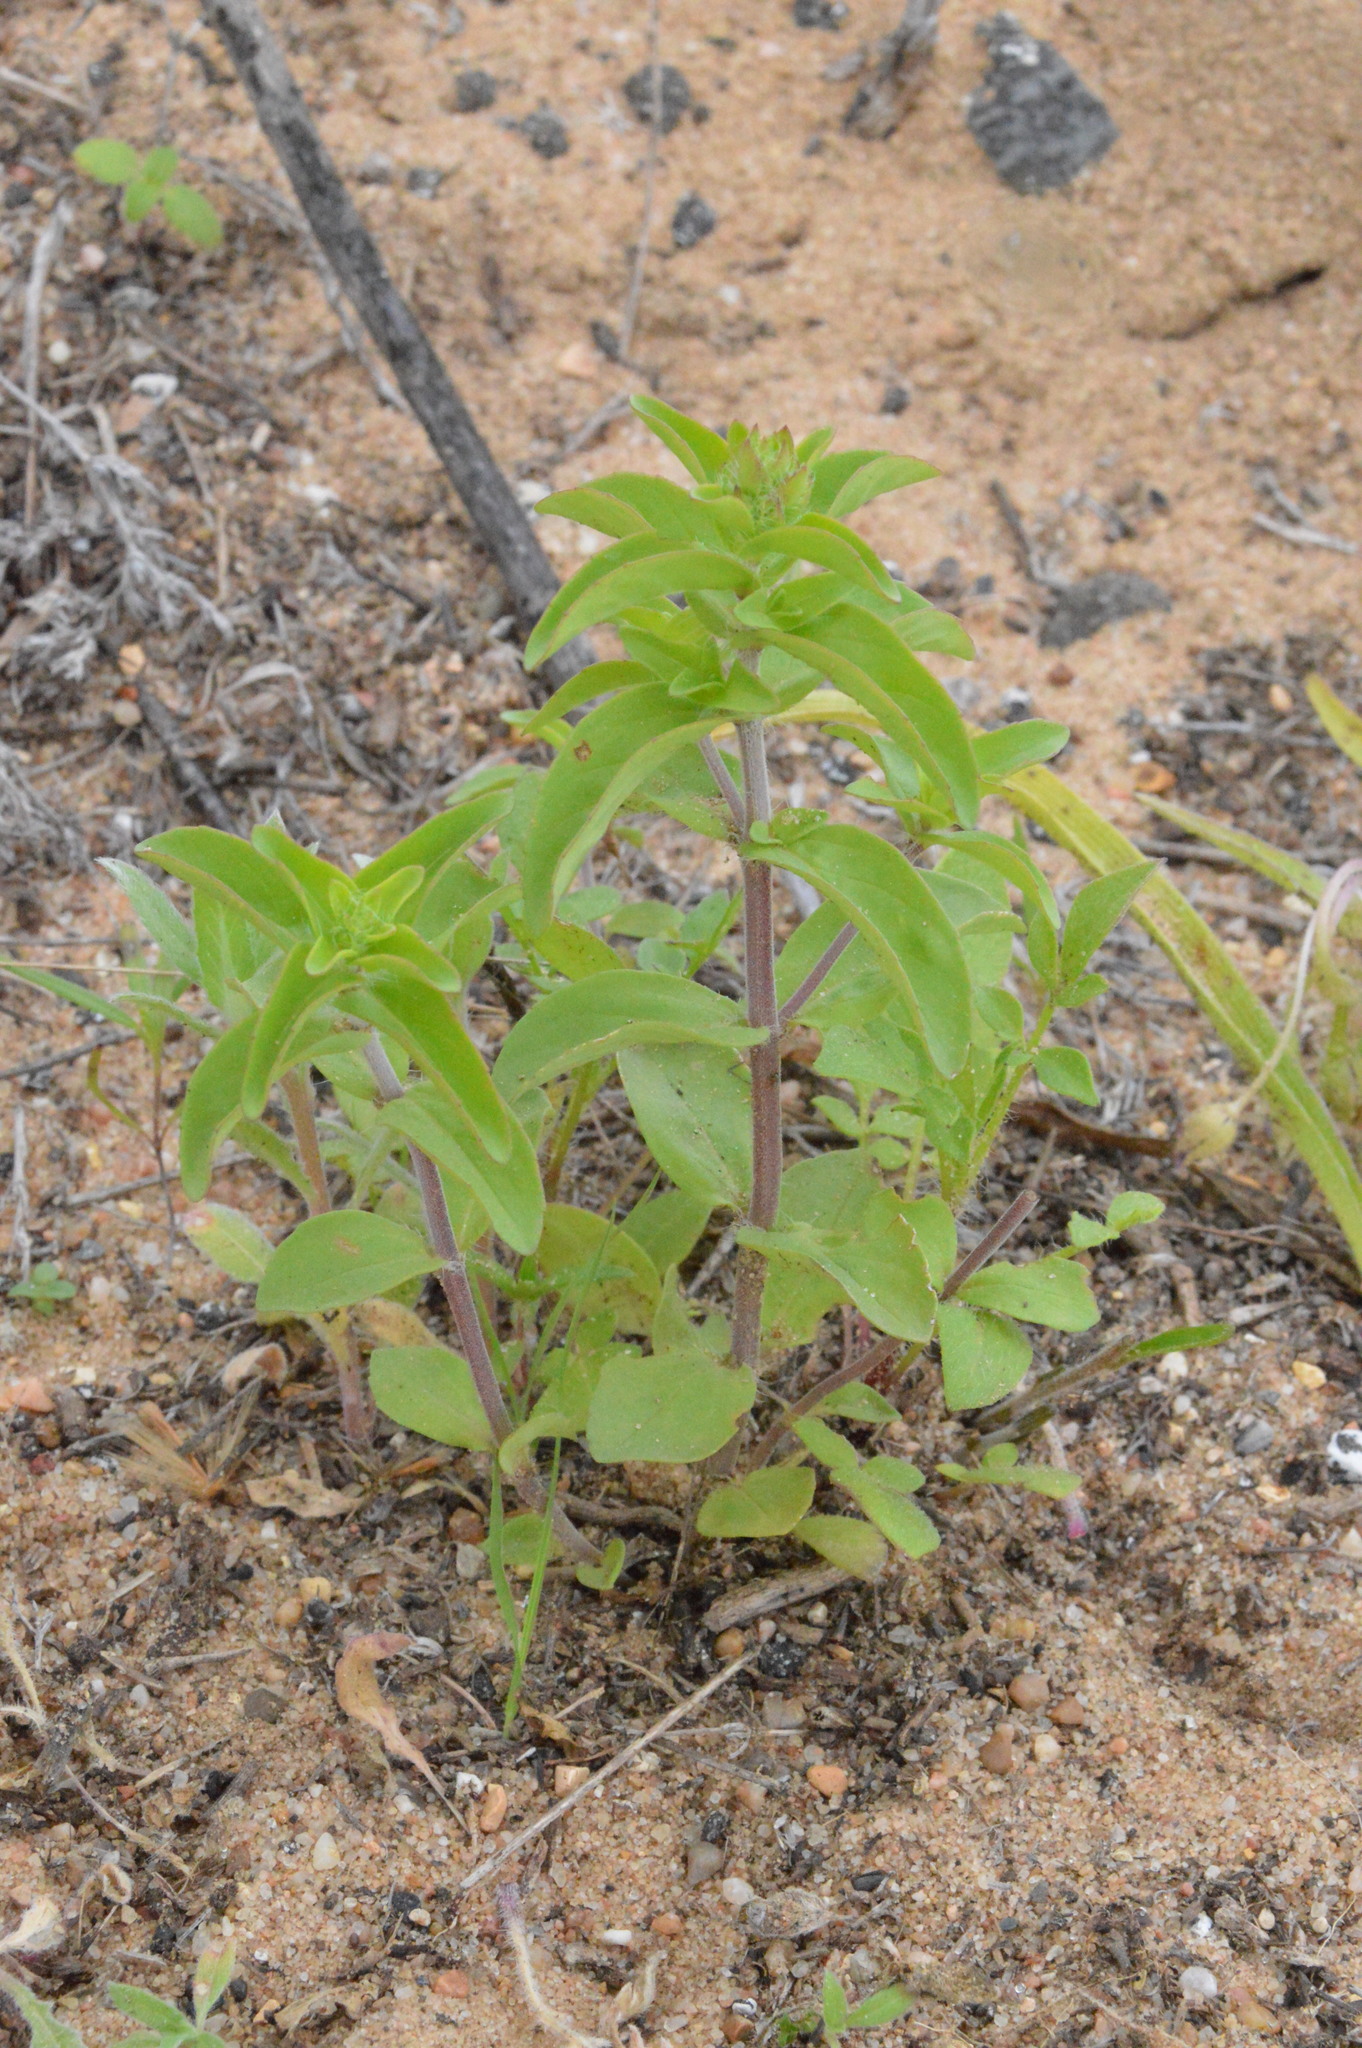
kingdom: Plantae
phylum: Tracheophyta
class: Magnoliopsida
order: Lamiales
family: Lamiaceae
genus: Rhododon
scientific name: Rhododon ciliatus
